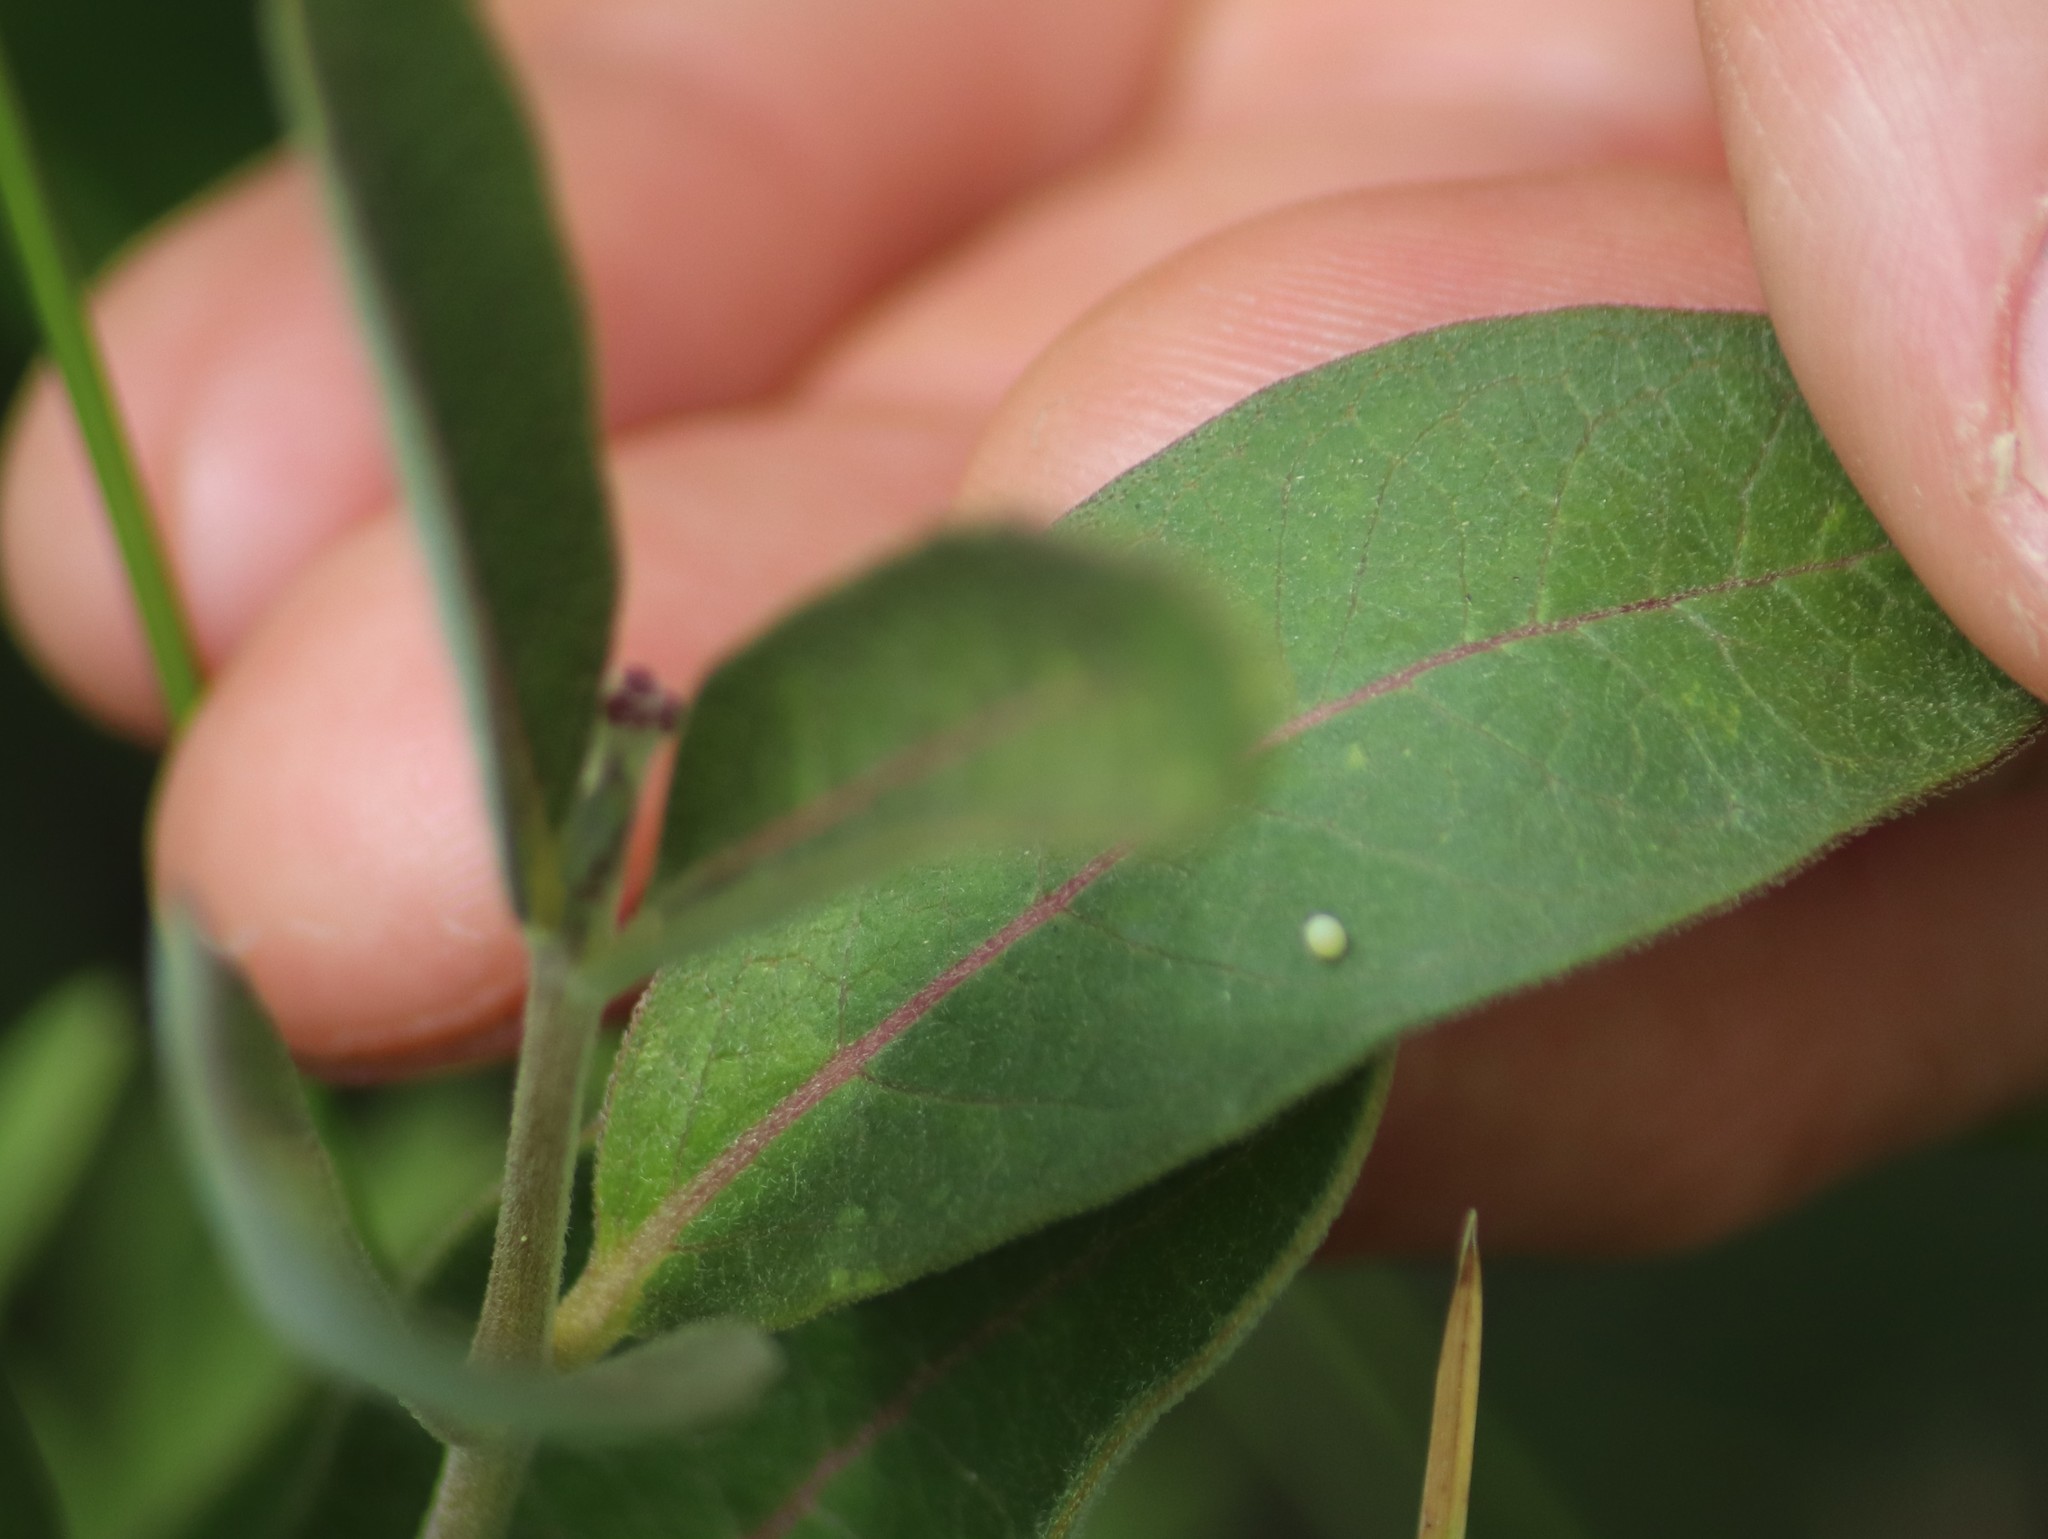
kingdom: Animalia
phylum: Arthropoda
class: Insecta
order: Lepidoptera
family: Nymphalidae
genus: Danaus
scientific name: Danaus plexippus
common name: Monarch
